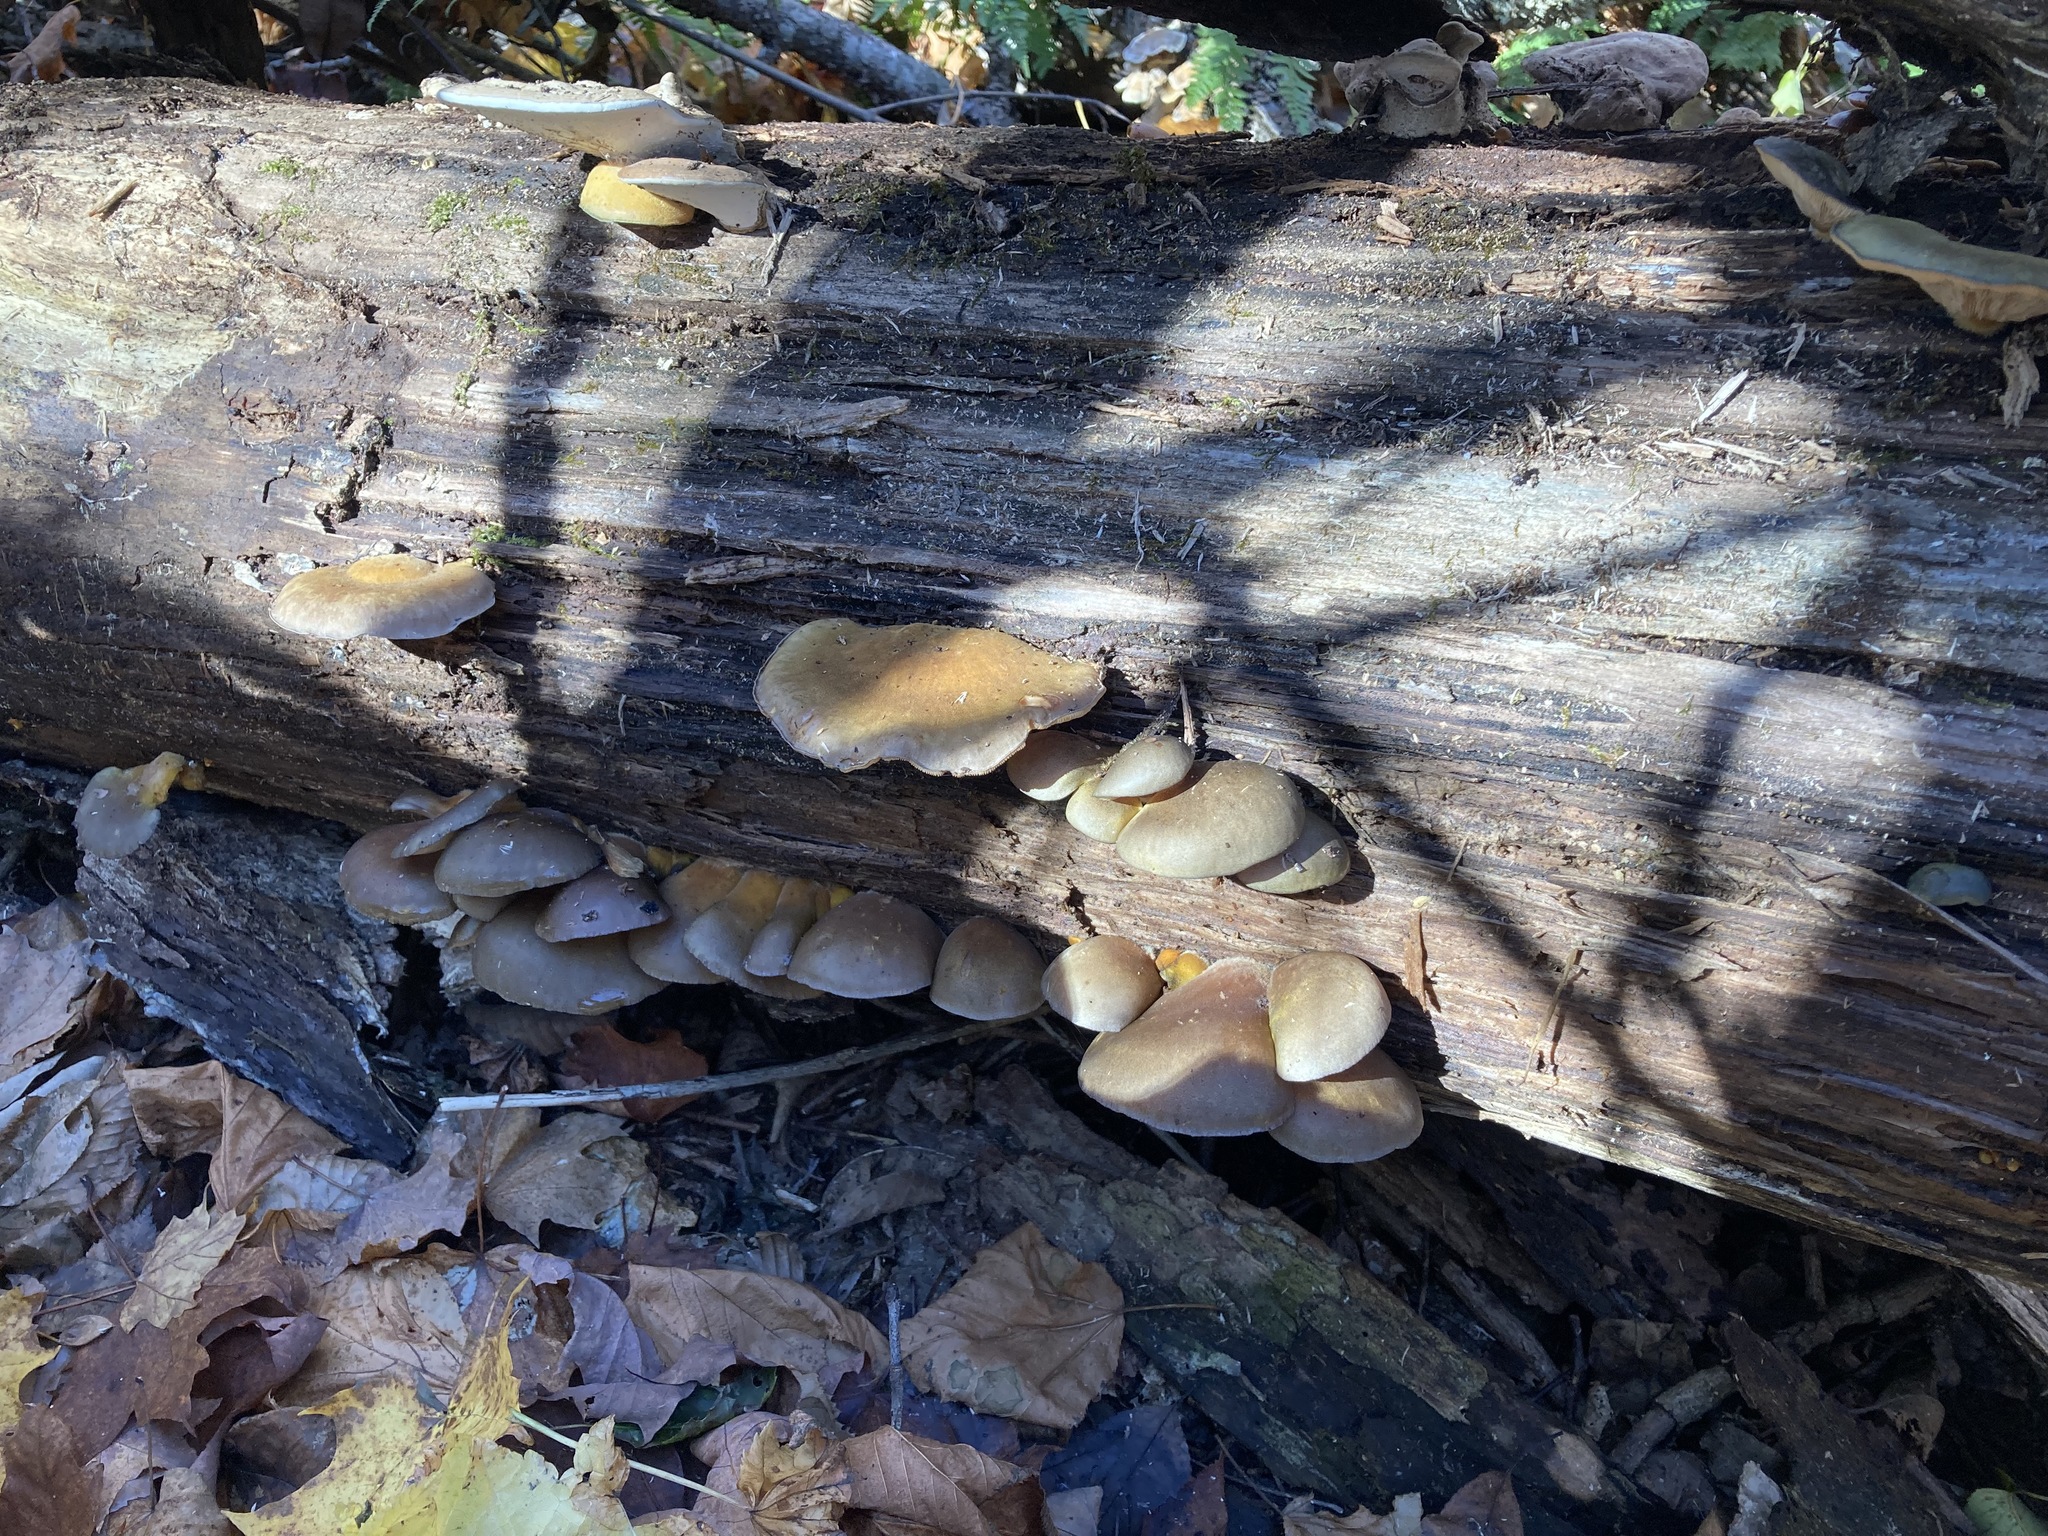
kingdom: Fungi
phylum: Basidiomycota
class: Agaricomycetes
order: Agaricales
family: Sarcomyxaceae
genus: Sarcomyxa
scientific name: Sarcomyxa serotina
